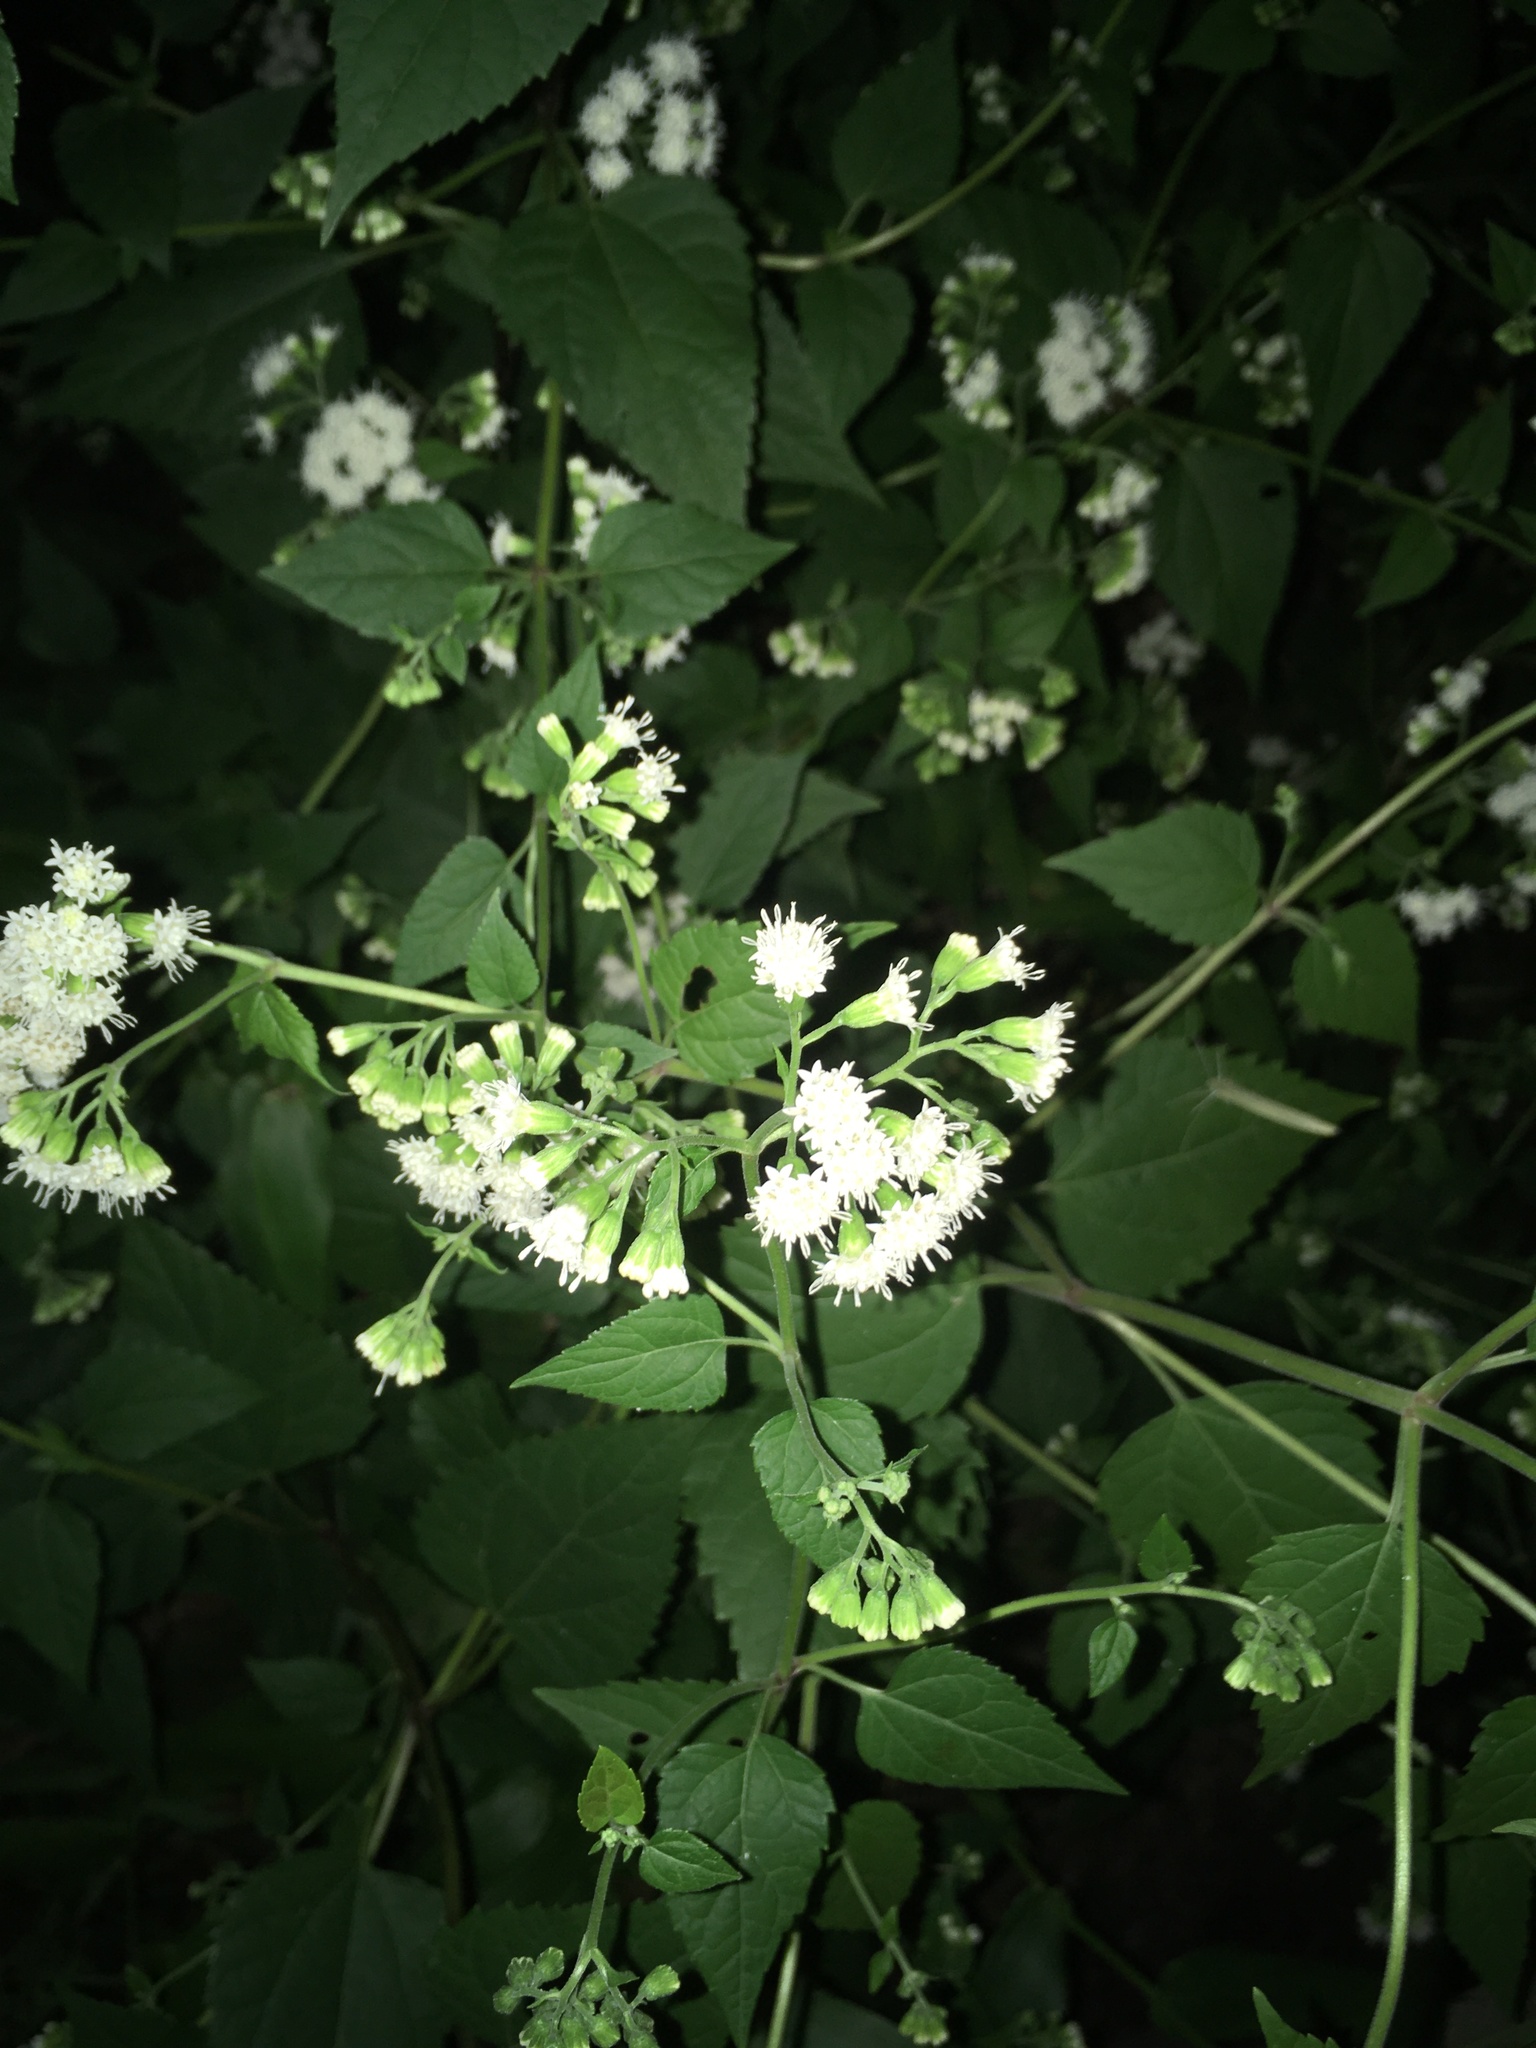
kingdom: Plantae
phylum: Tracheophyta
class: Magnoliopsida
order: Asterales
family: Asteraceae
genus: Ageratina
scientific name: Ageratina altissima
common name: White snakeroot
